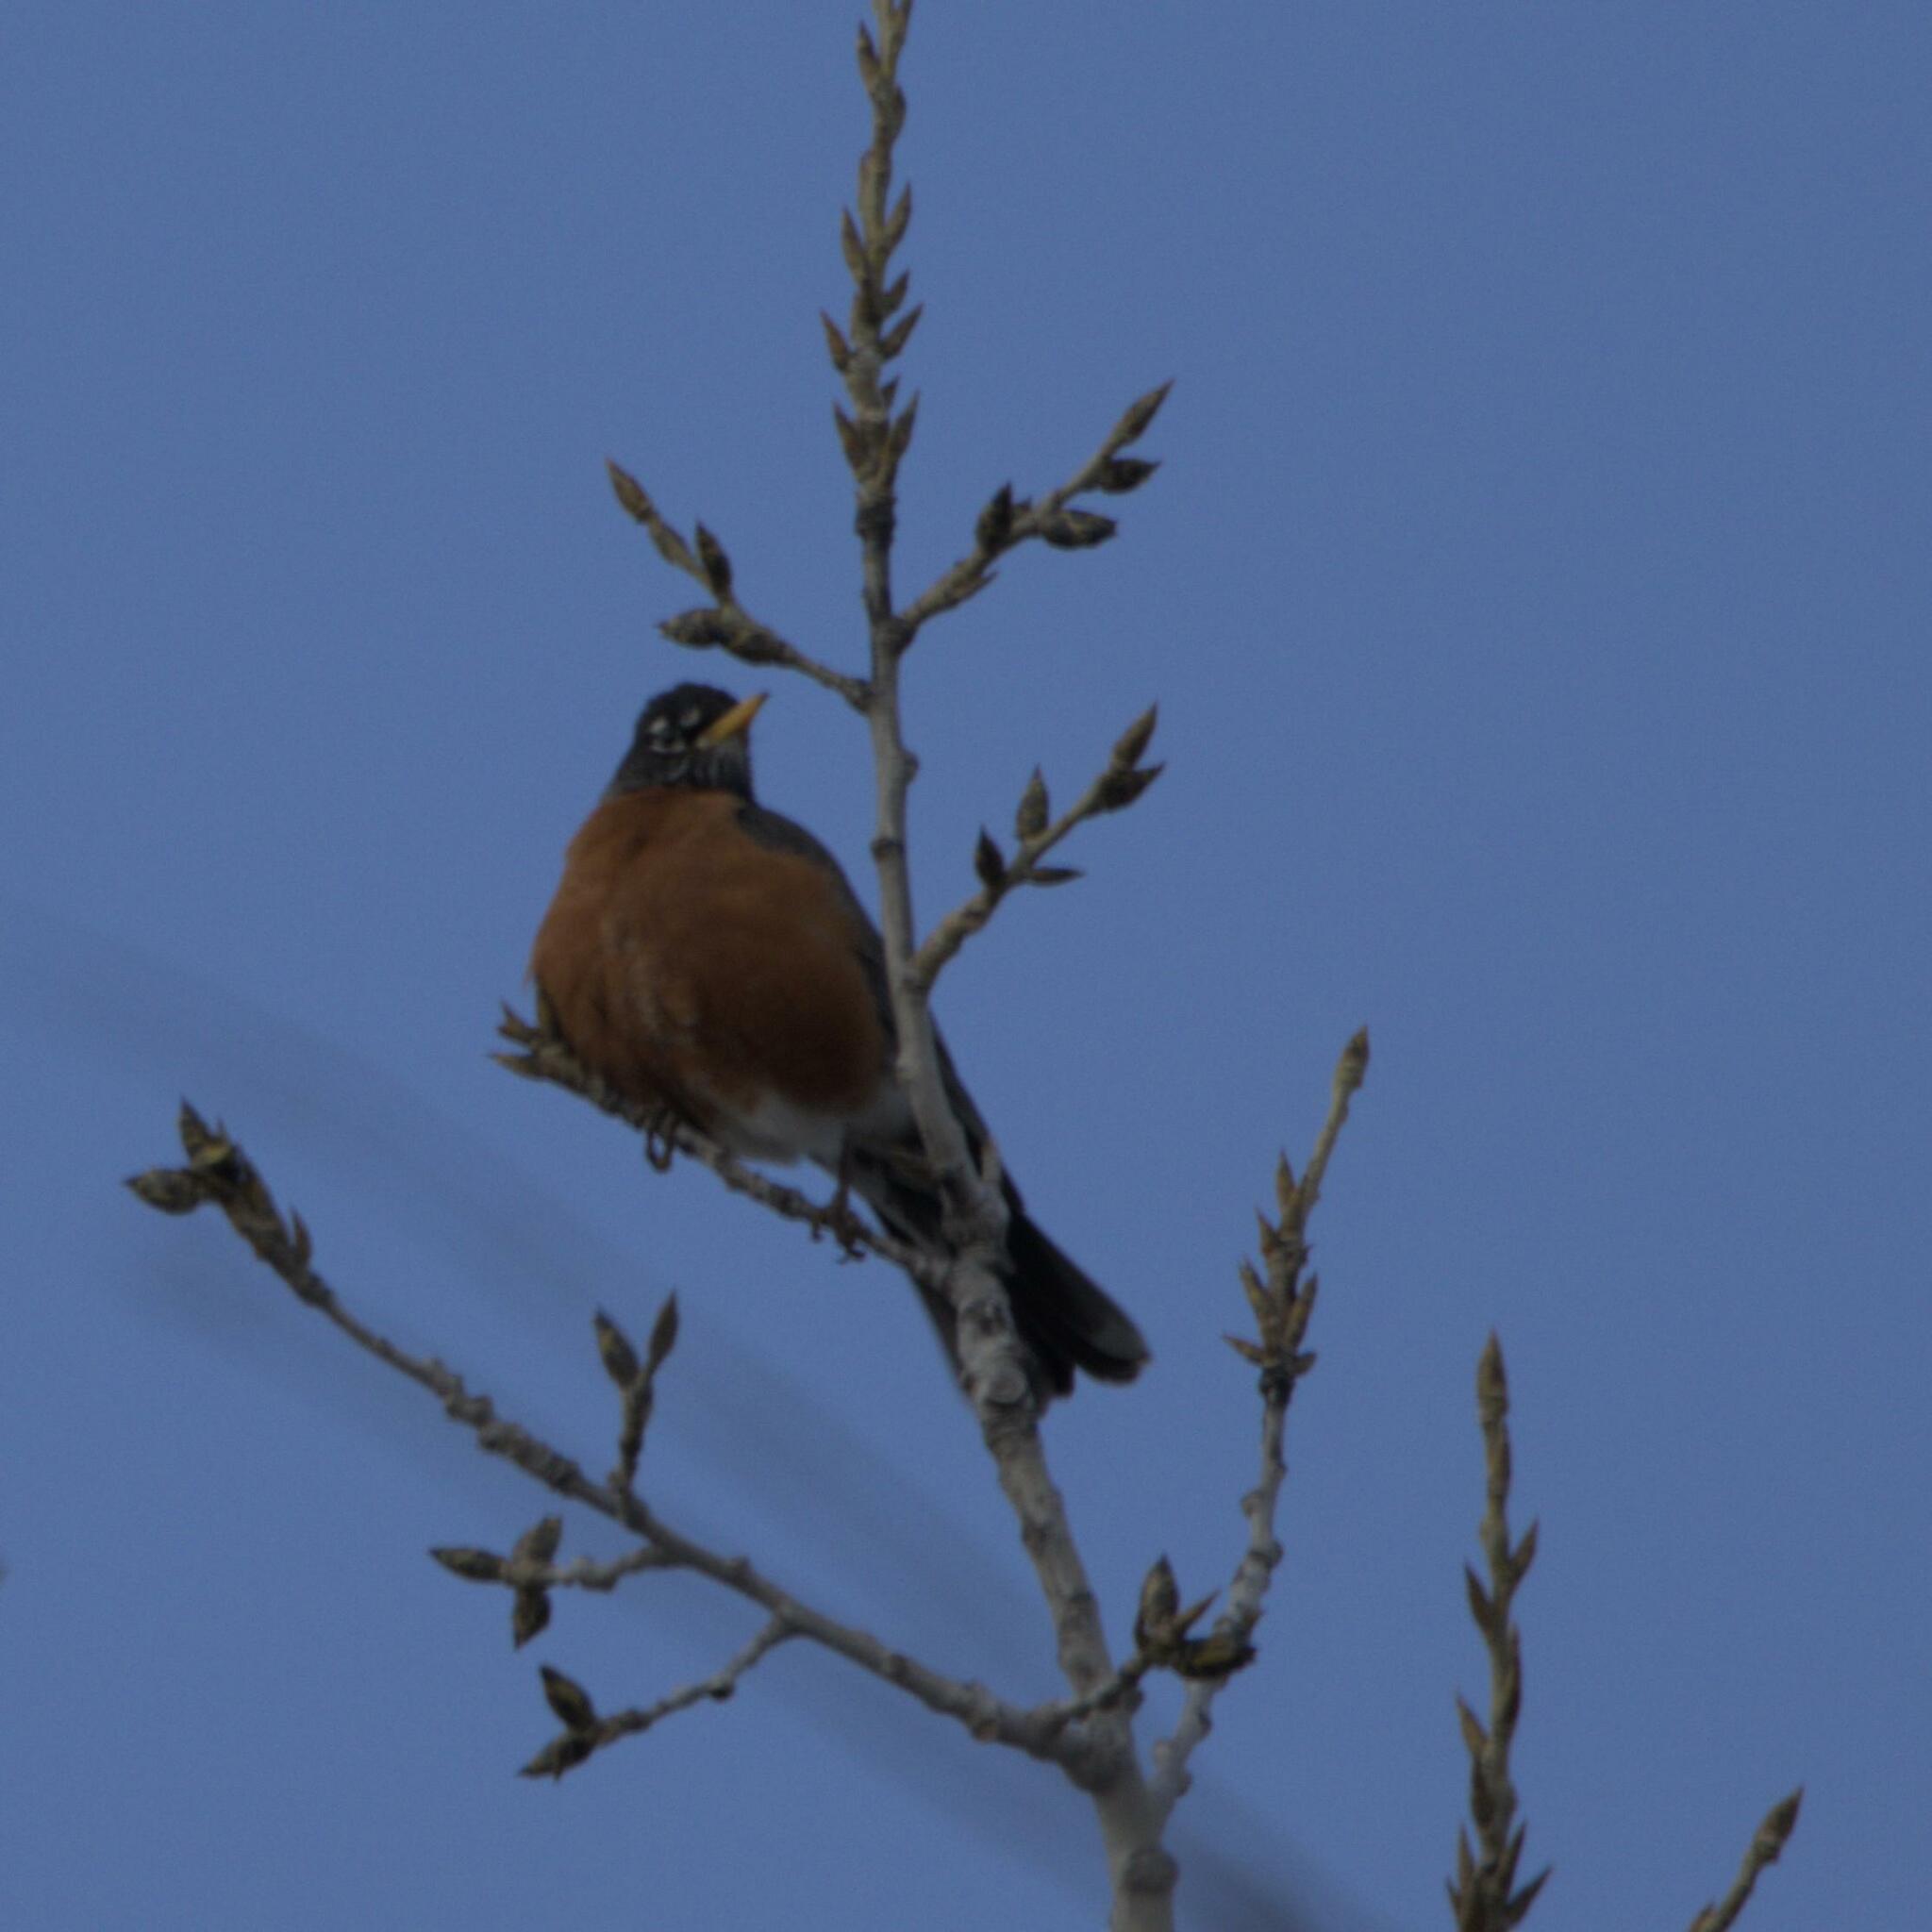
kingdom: Animalia
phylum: Chordata
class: Aves
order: Passeriformes
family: Turdidae
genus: Turdus
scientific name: Turdus migratorius
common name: American robin
